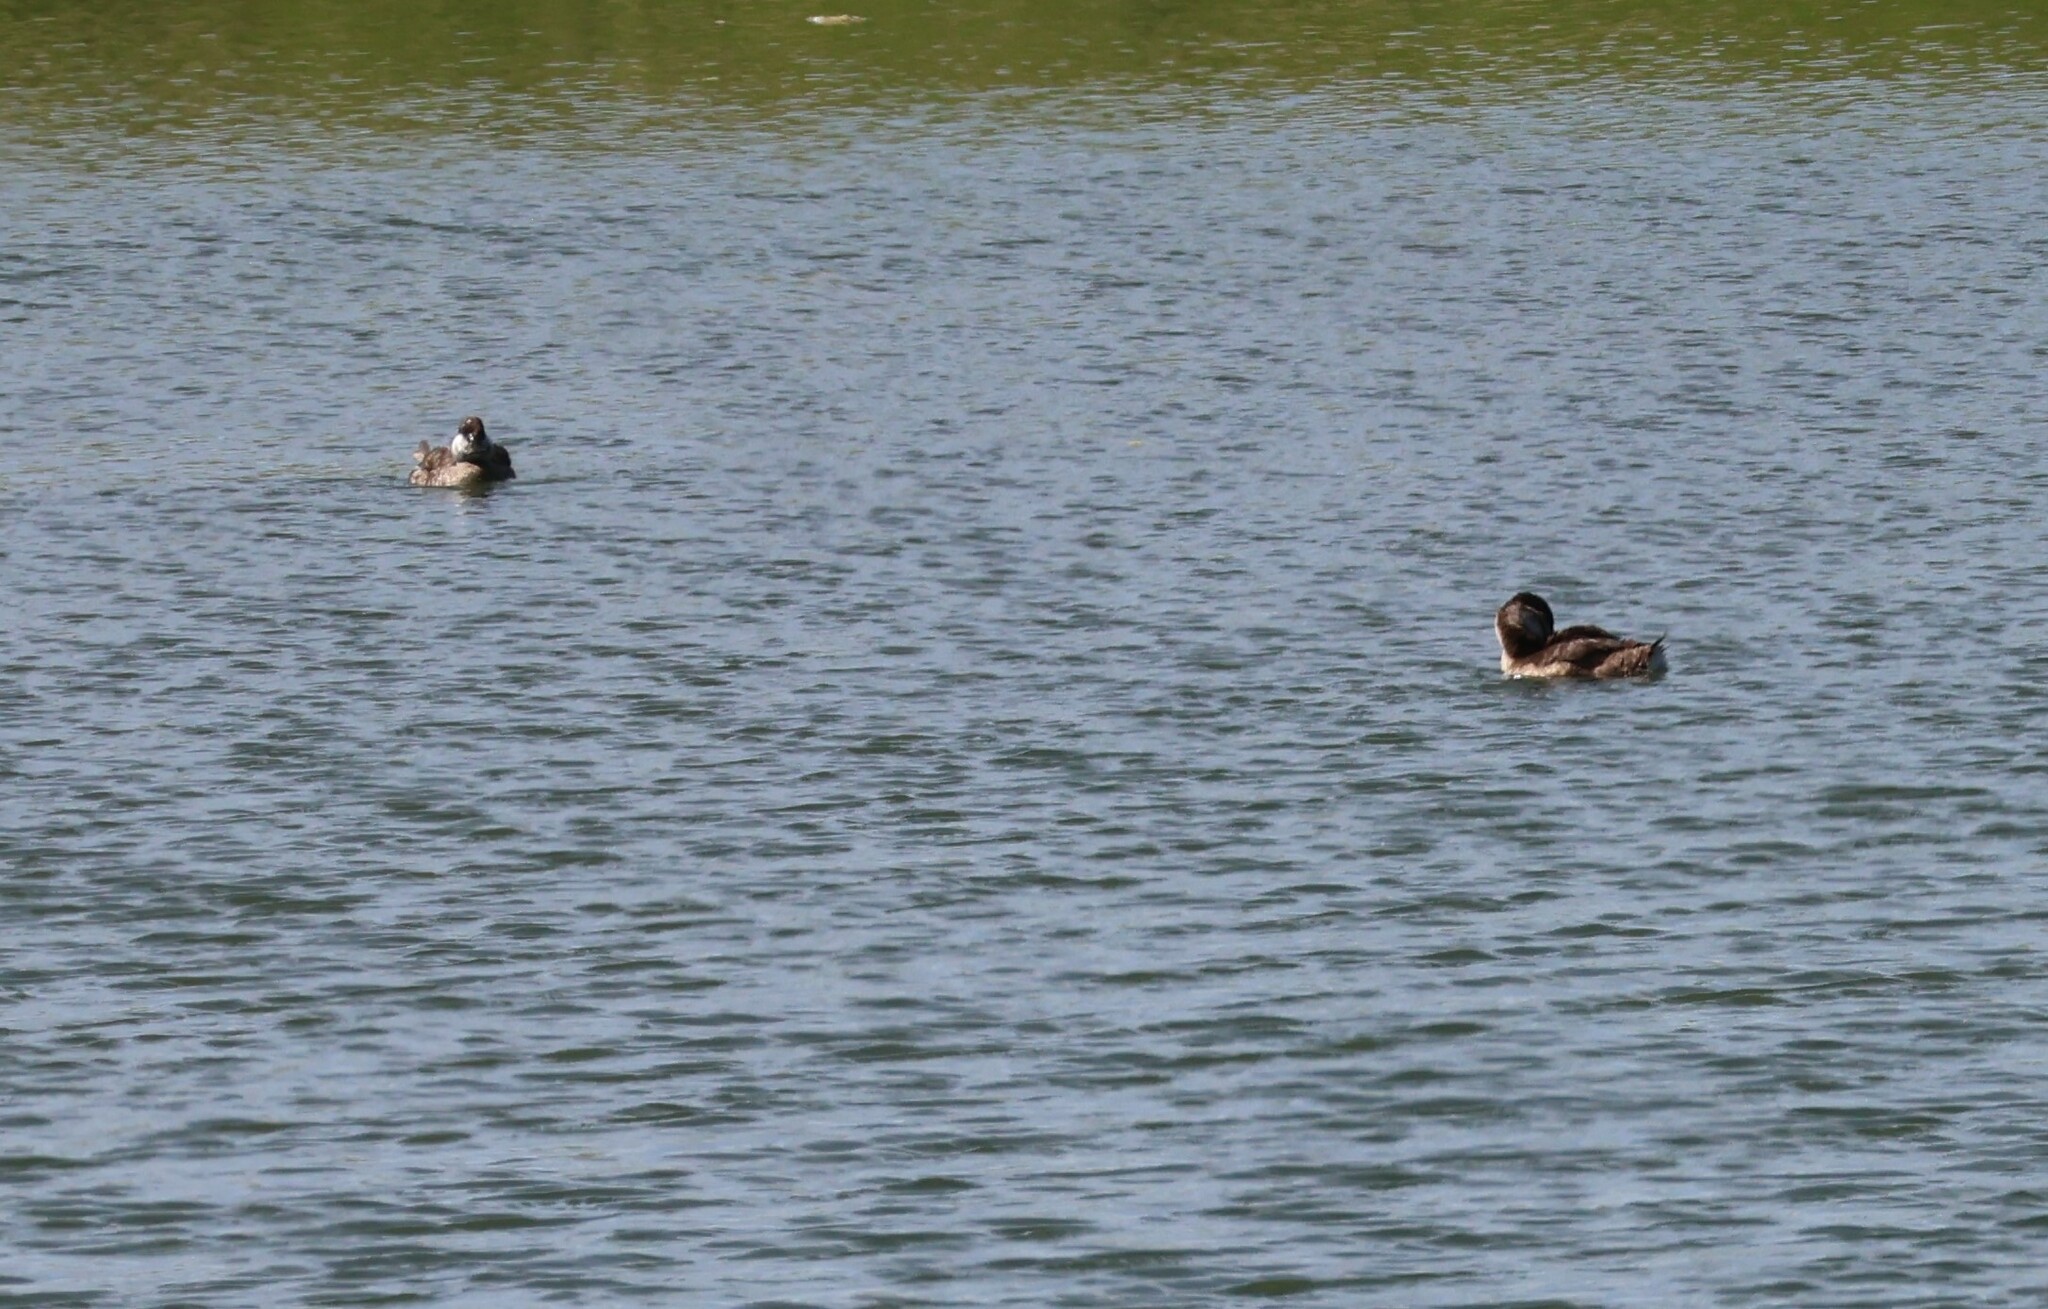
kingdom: Animalia
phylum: Chordata
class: Aves
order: Anseriformes
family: Anatidae
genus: Oxyura
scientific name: Oxyura jamaicensis
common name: Ruddy duck
